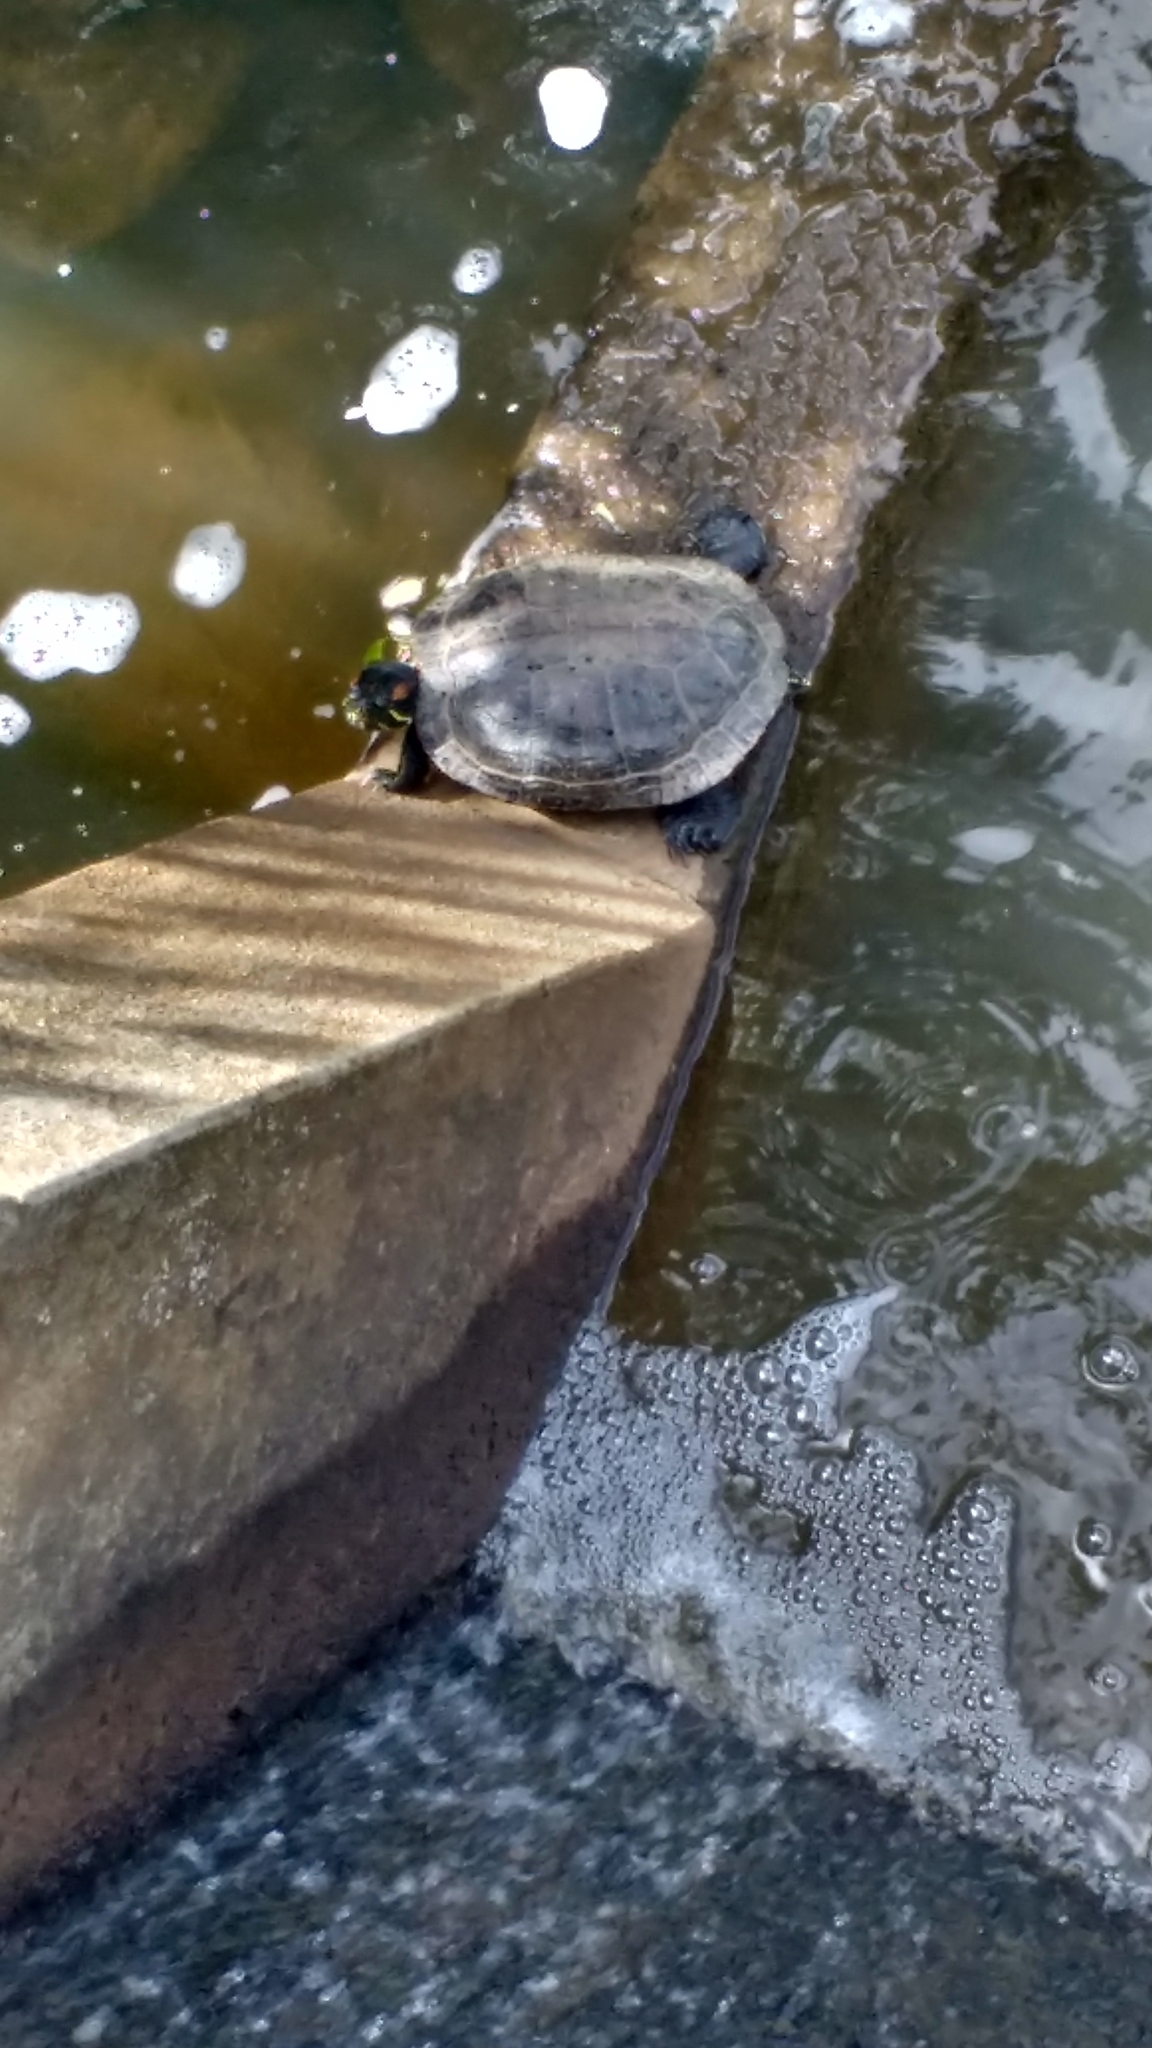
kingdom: Animalia
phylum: Chordata
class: Testudines
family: Emydidae
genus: Trachemys
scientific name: Trachemys scripta
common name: Slider
